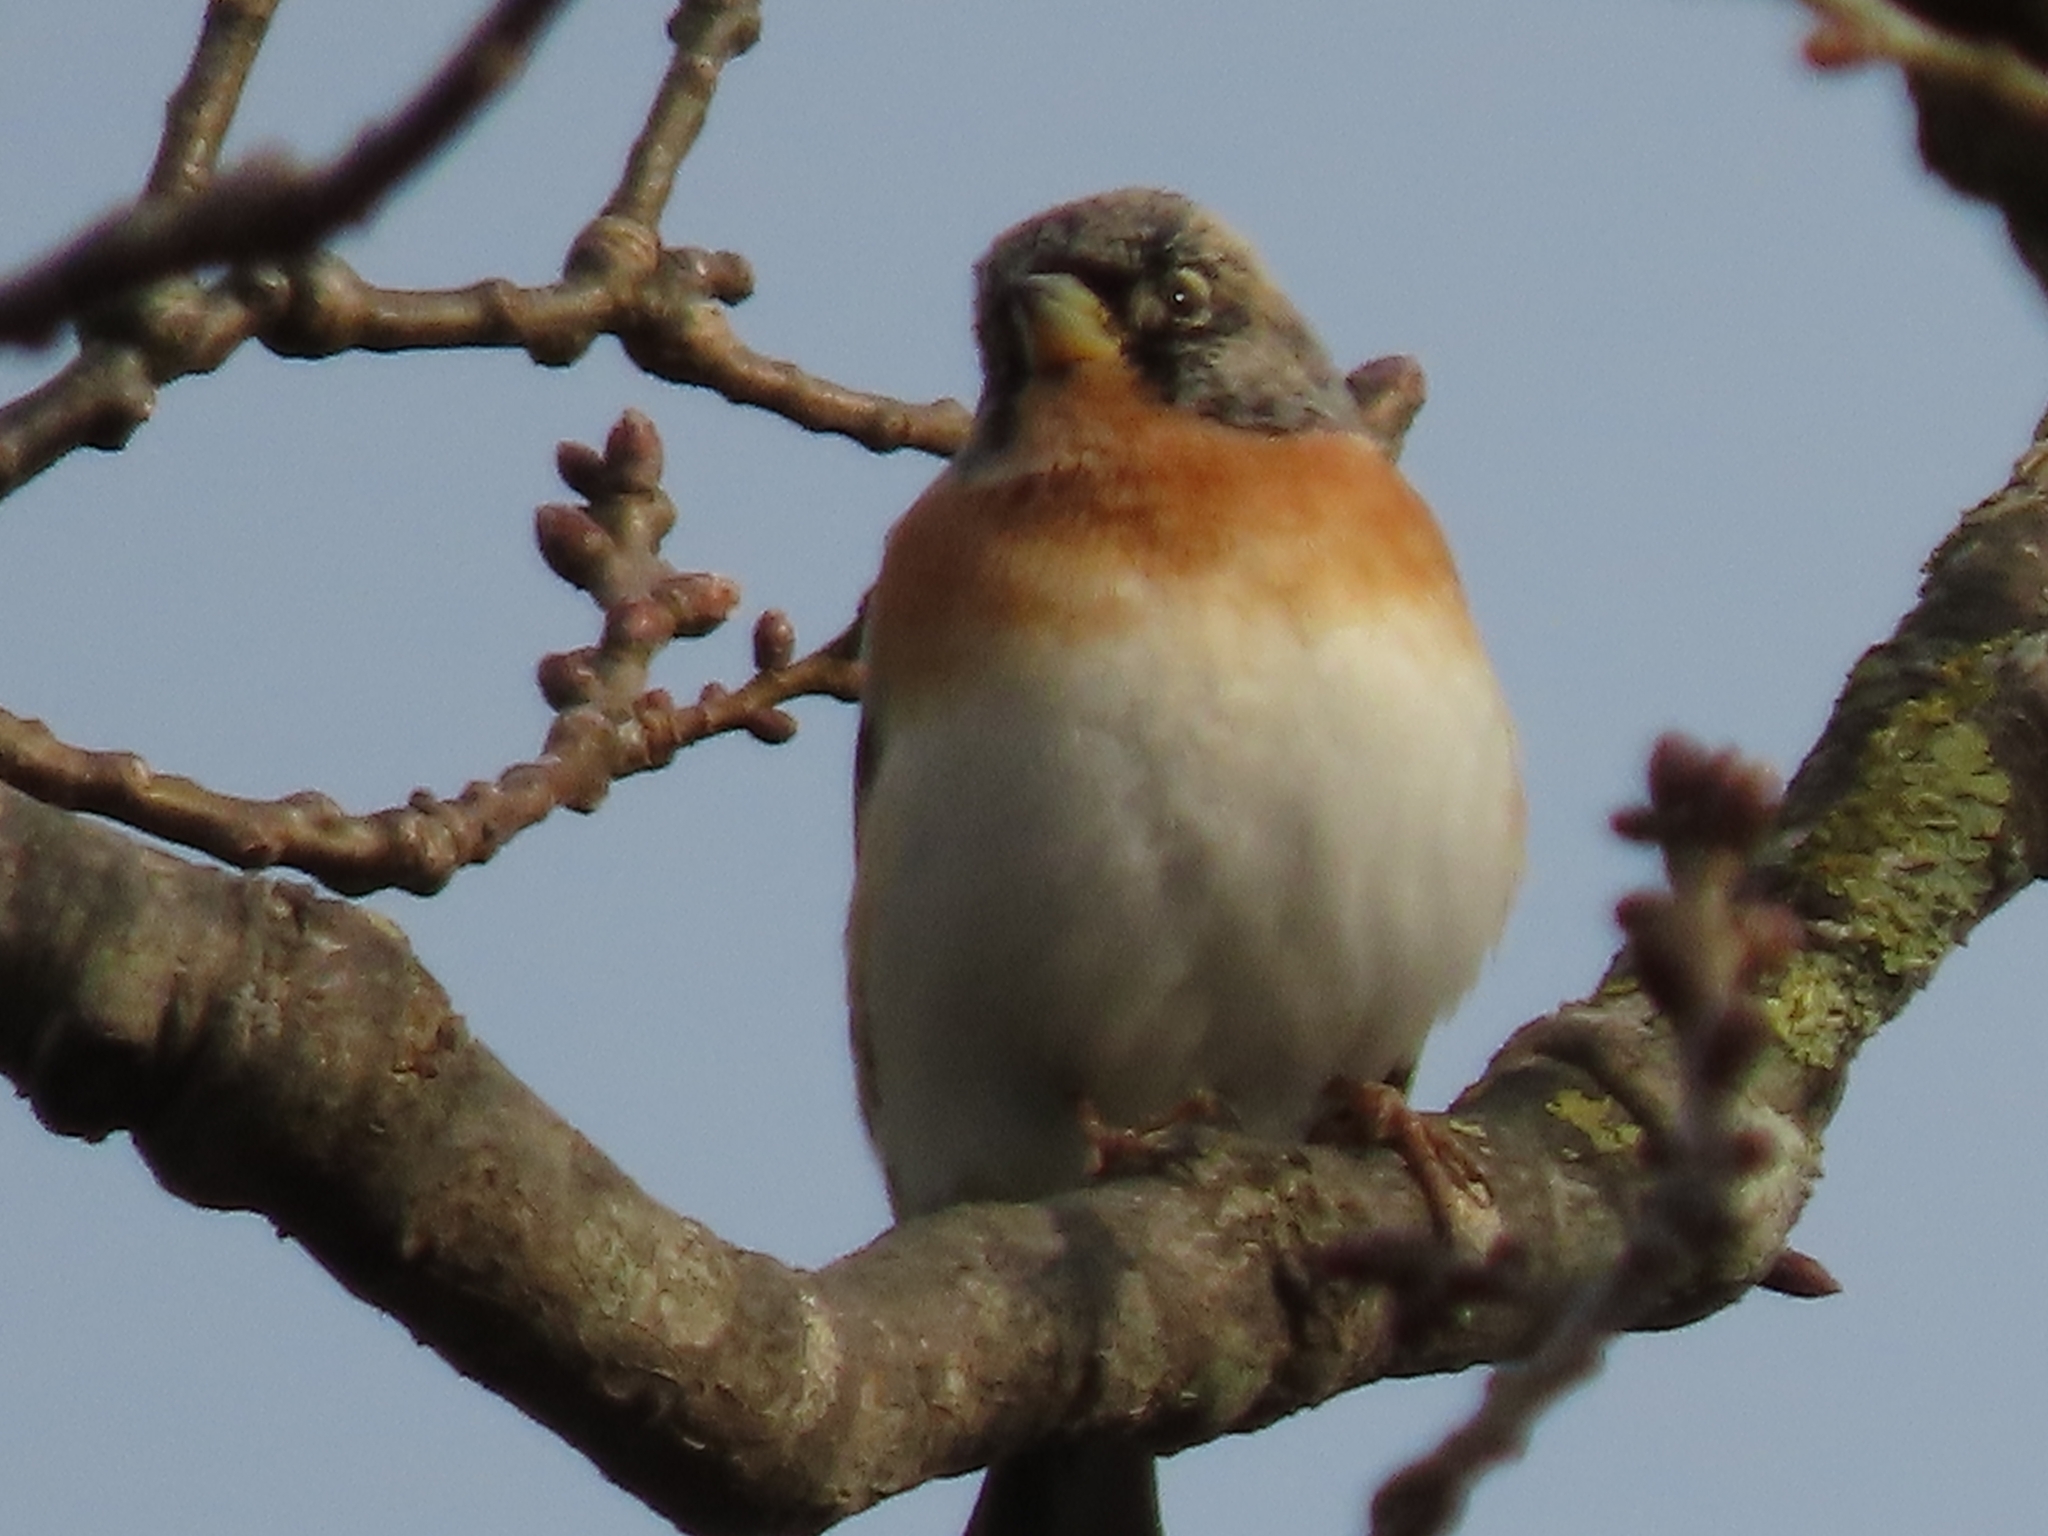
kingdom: Animalia
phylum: Chordata
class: Aves
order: Passeriformes
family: Fringillidae
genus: Fringilla
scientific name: Fringilla montifringilla
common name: Brambling
